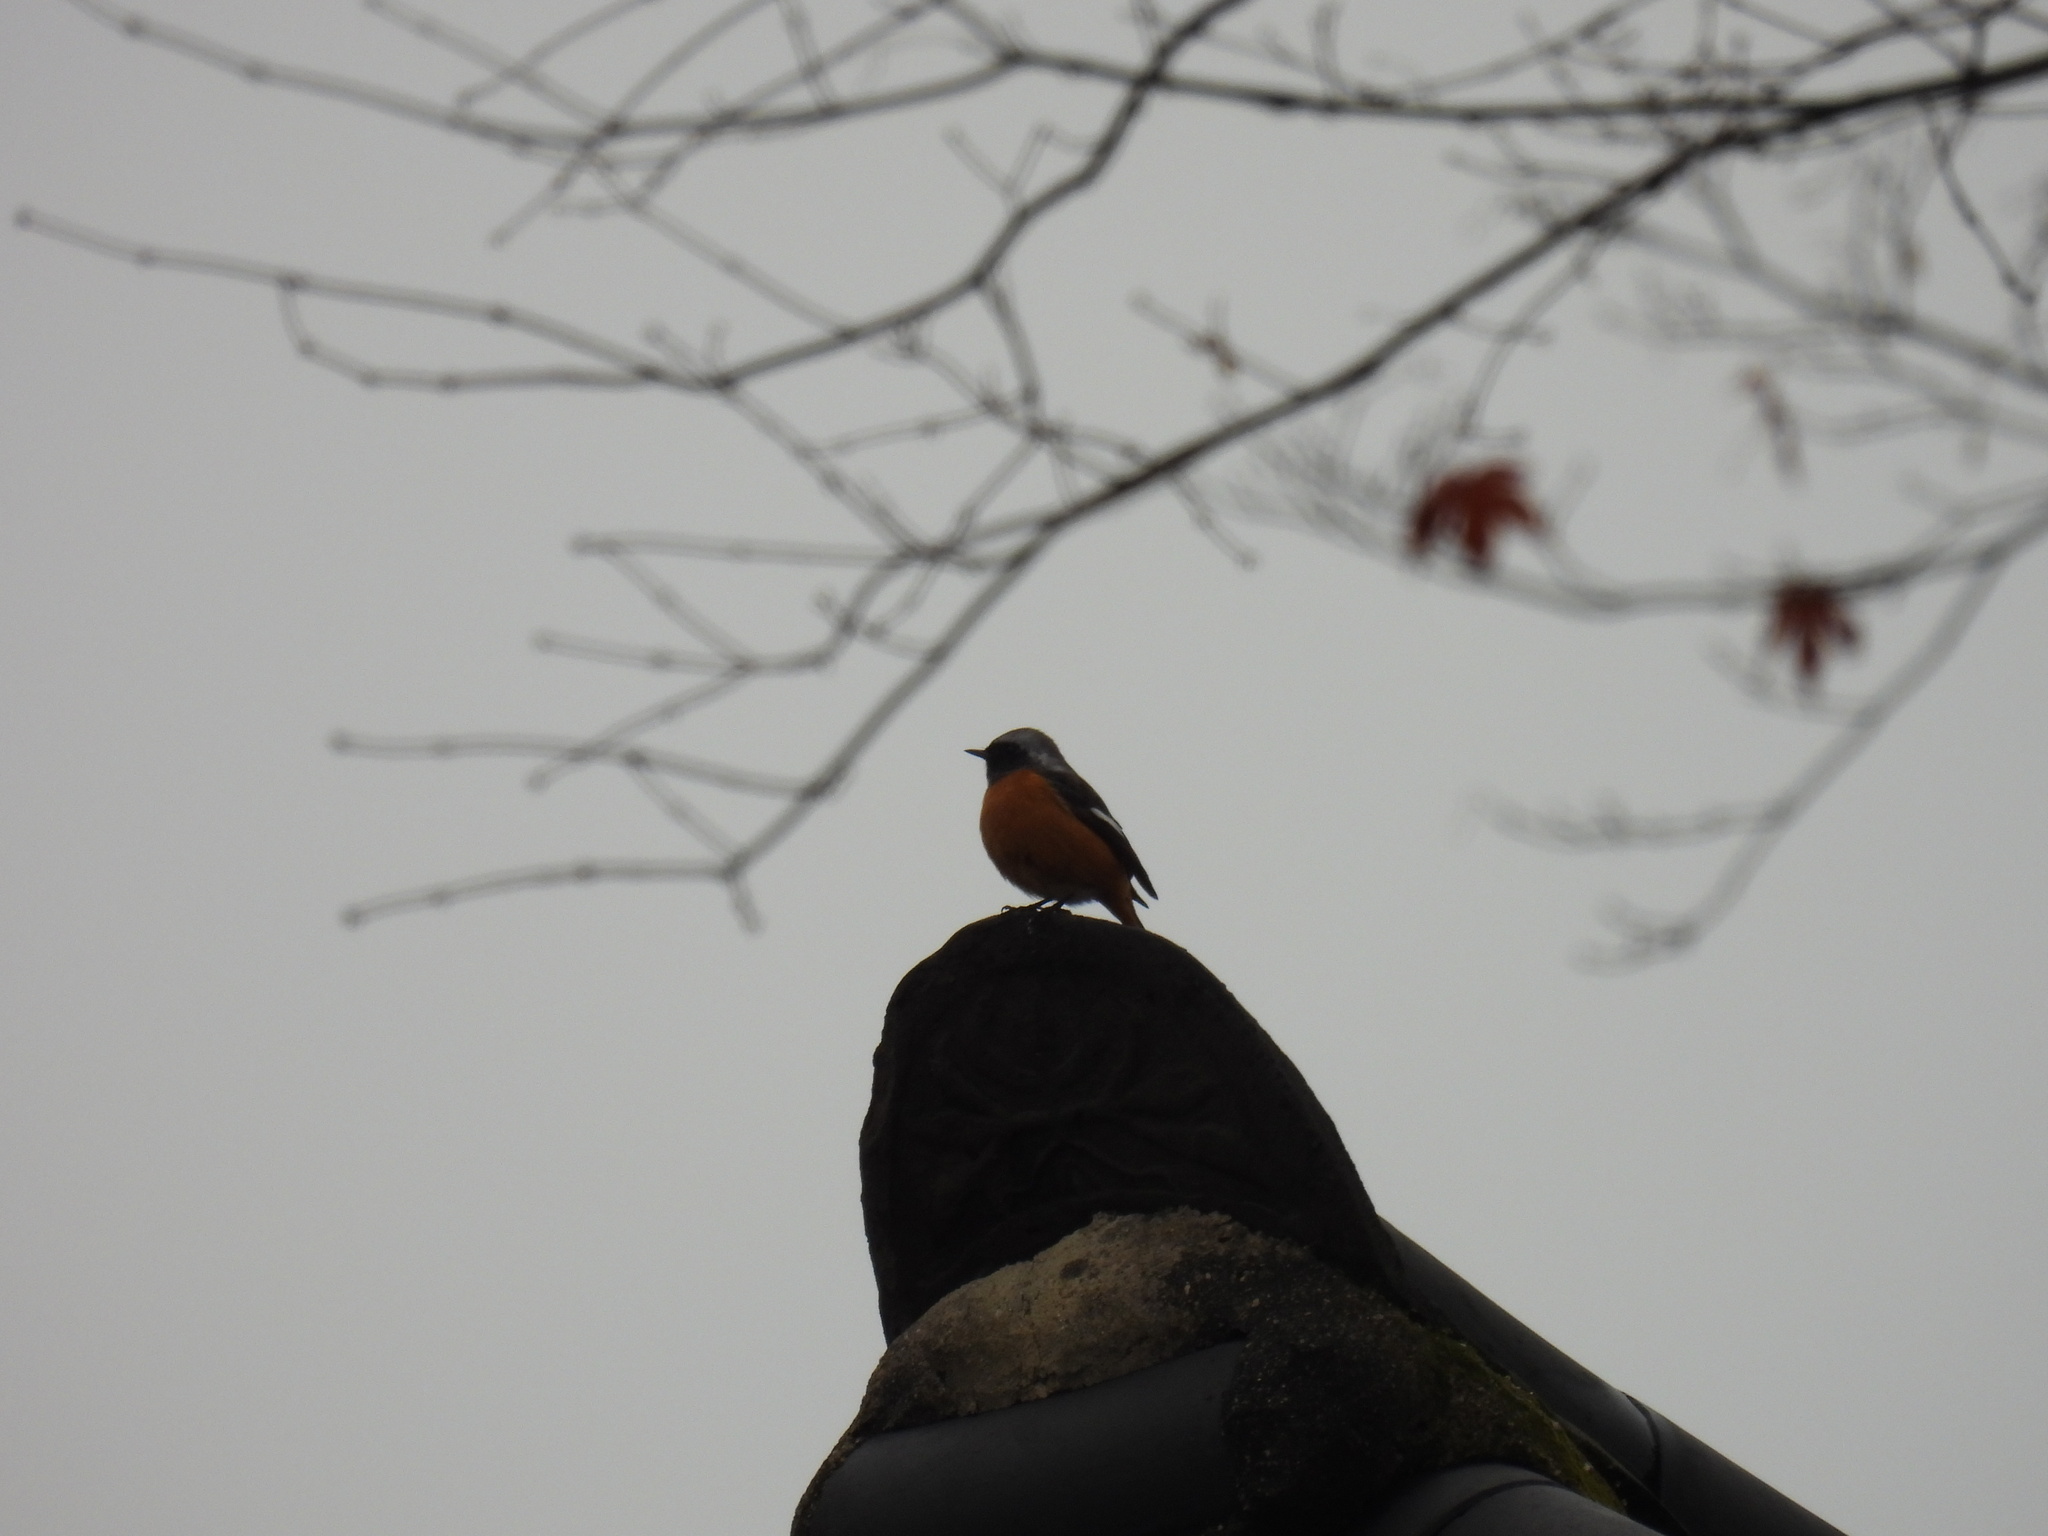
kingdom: Animalia
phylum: Chordata
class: Aves
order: Passeriformes
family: Muscicapidae
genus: Phoenicurus
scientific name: Phoenicurus auroreus
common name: Daurian redstart
